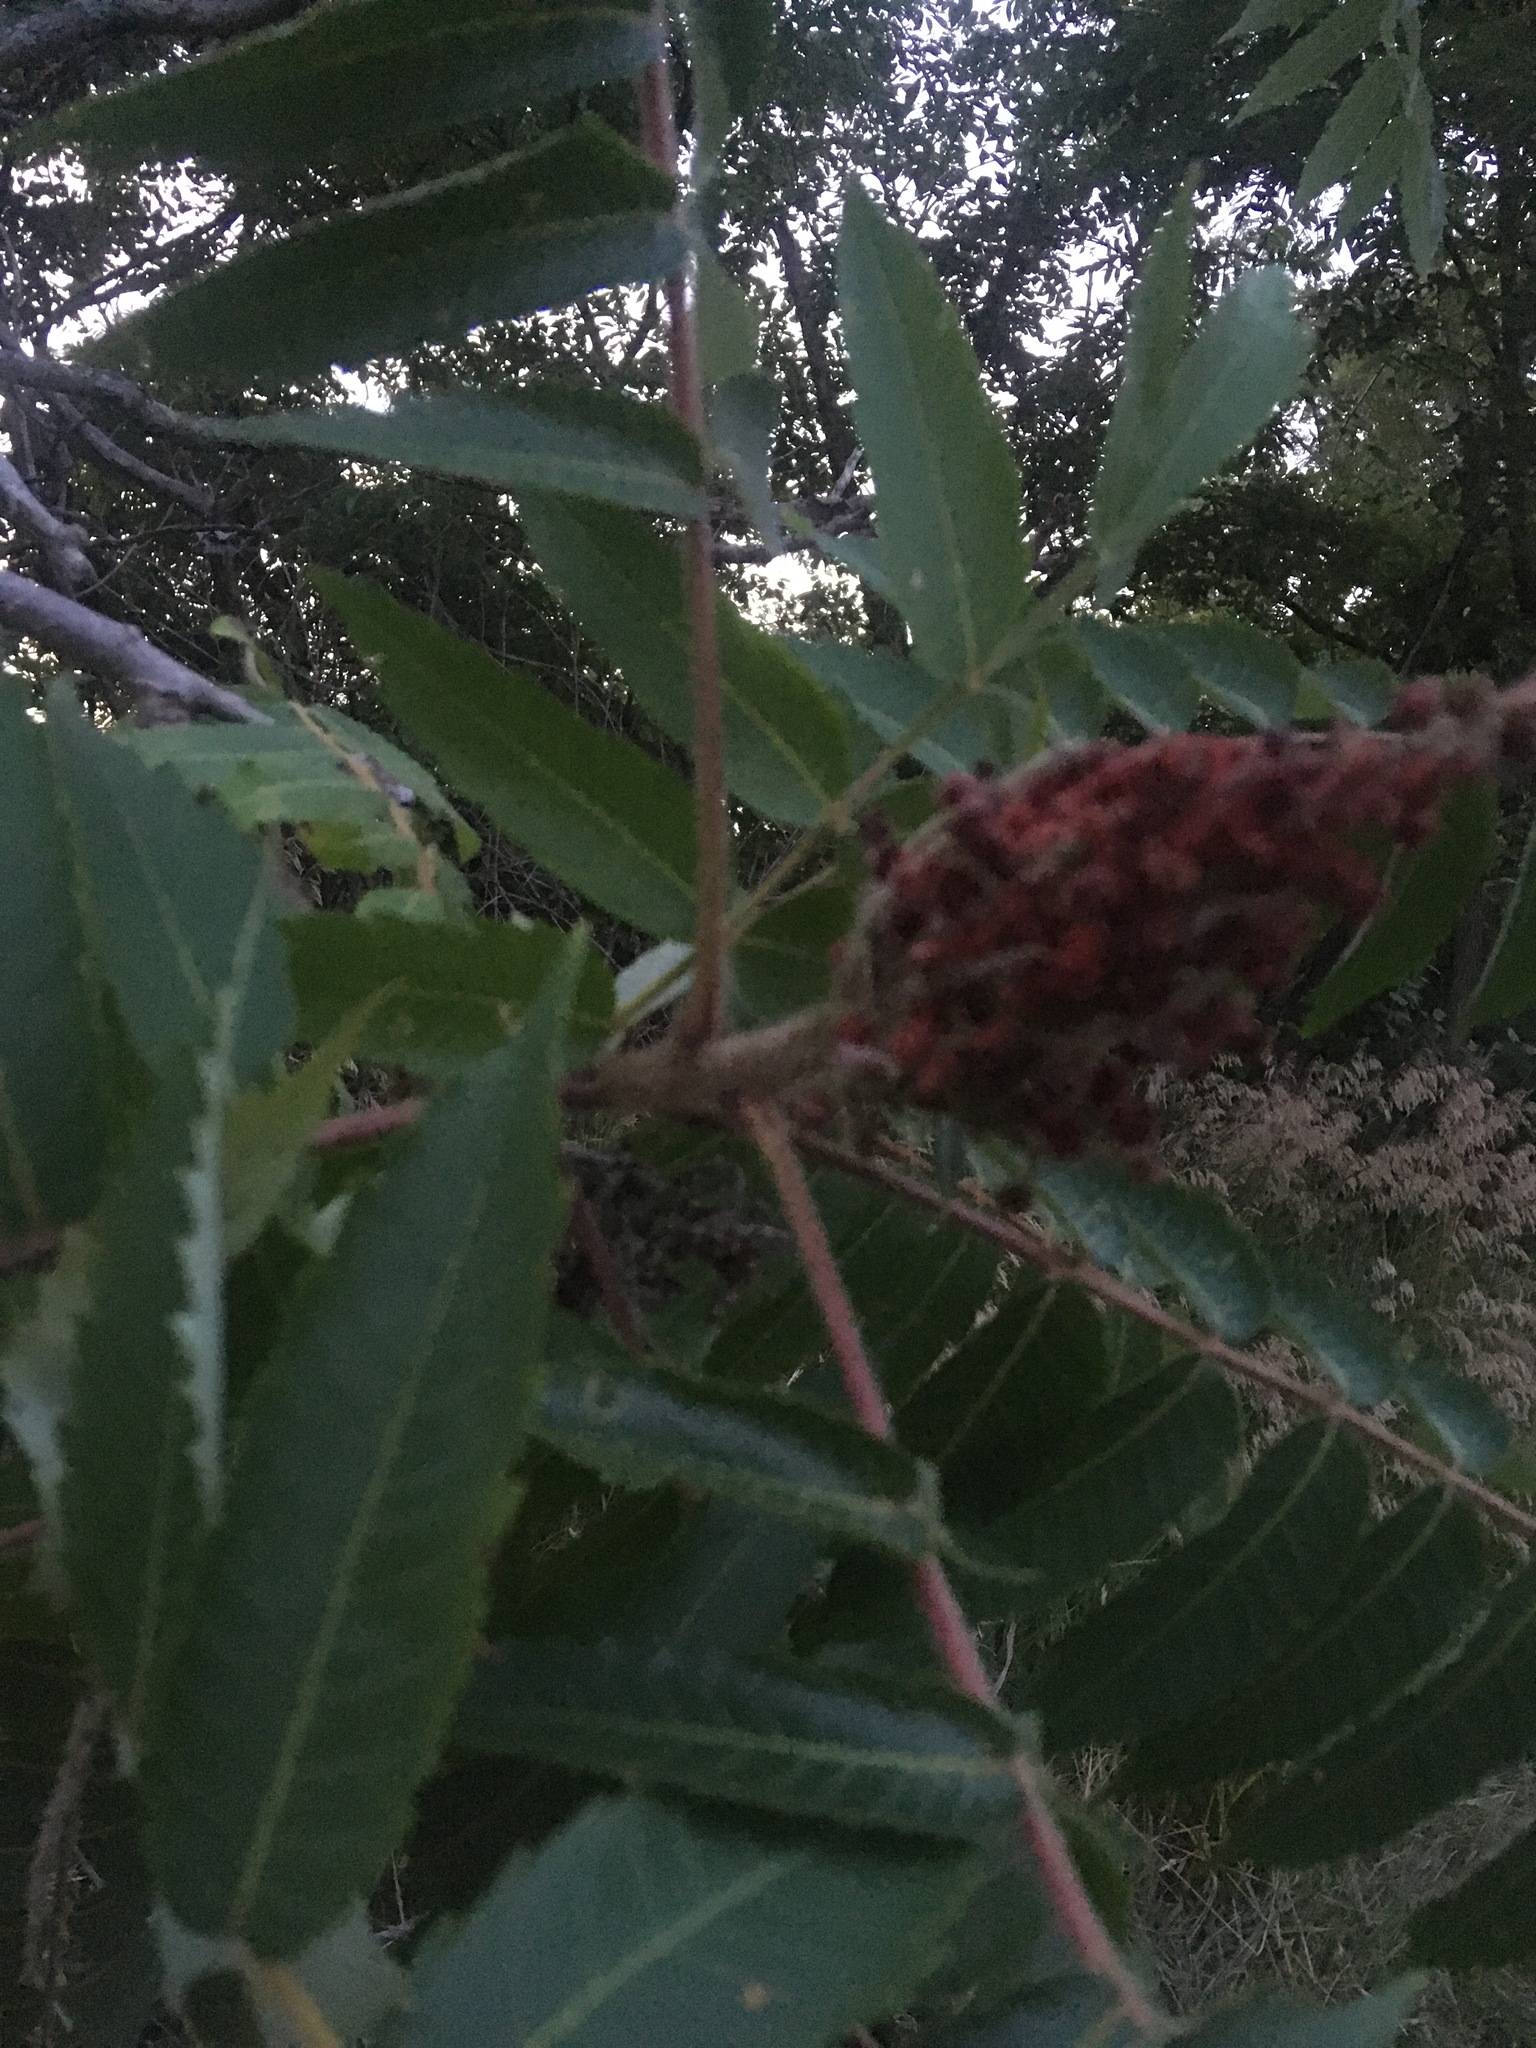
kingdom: Plantae
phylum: Tracheophyta
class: Magnoliopsida
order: Sapindales
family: Anacardiaceae
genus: Rhus
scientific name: Rhus typhina
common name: Staghorn sumac
